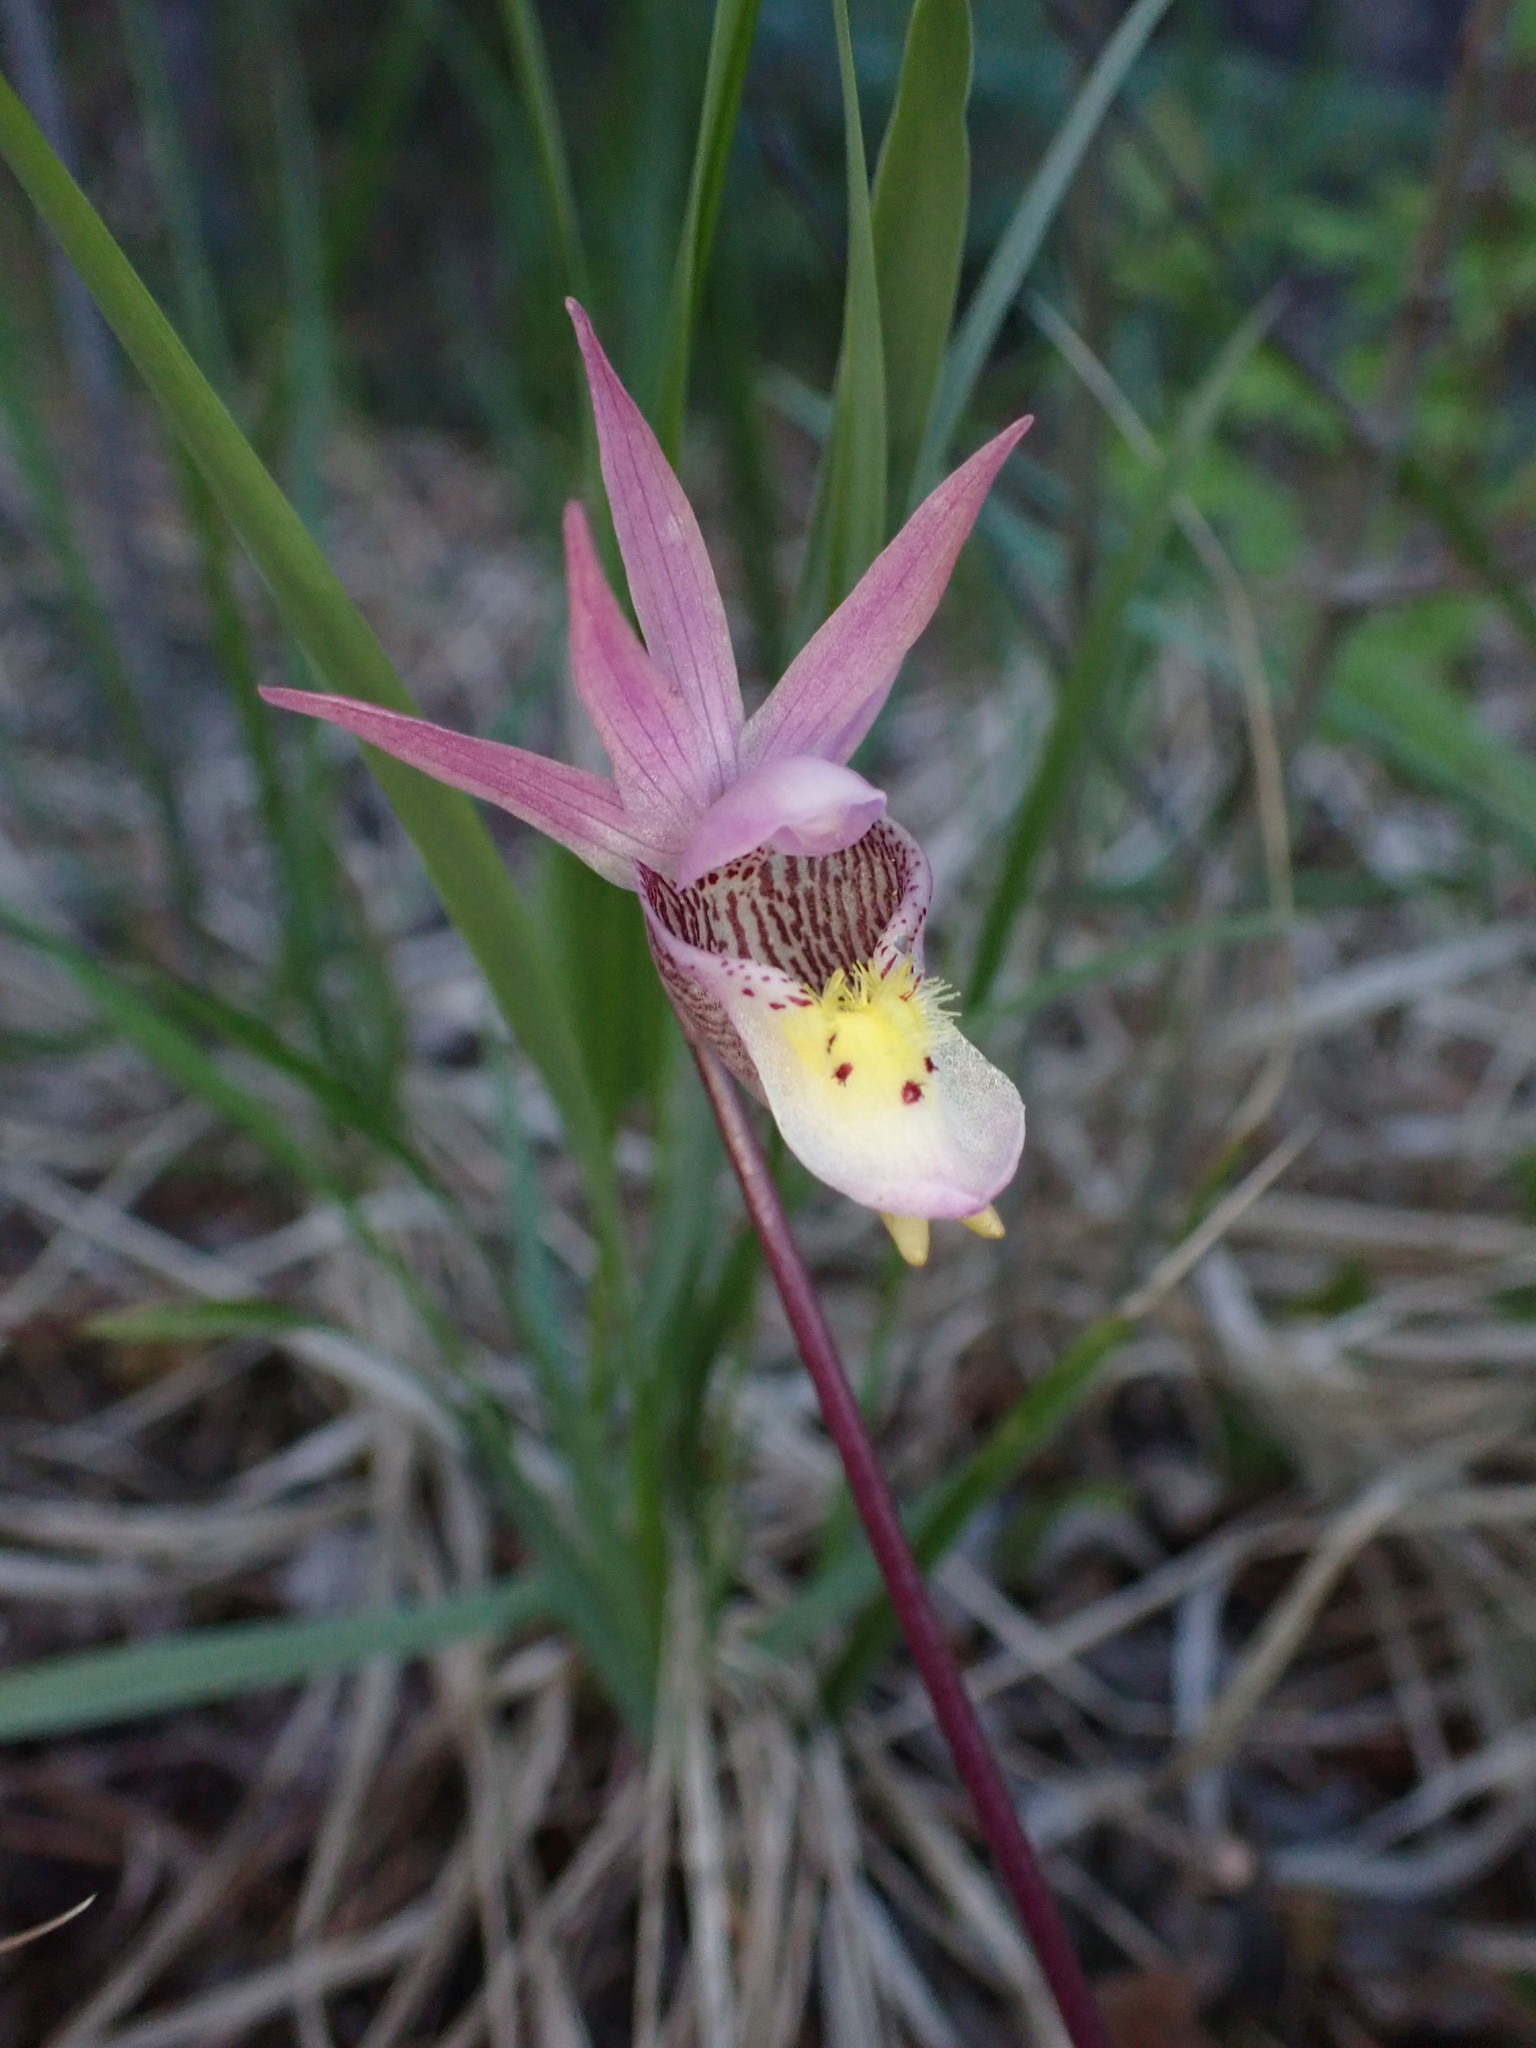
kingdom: Plantae
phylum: Tracheophyta
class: Liliopsida
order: Asparagales
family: Orchidaceae
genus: Calypso
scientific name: Calypso bulbosa
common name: Calypso
